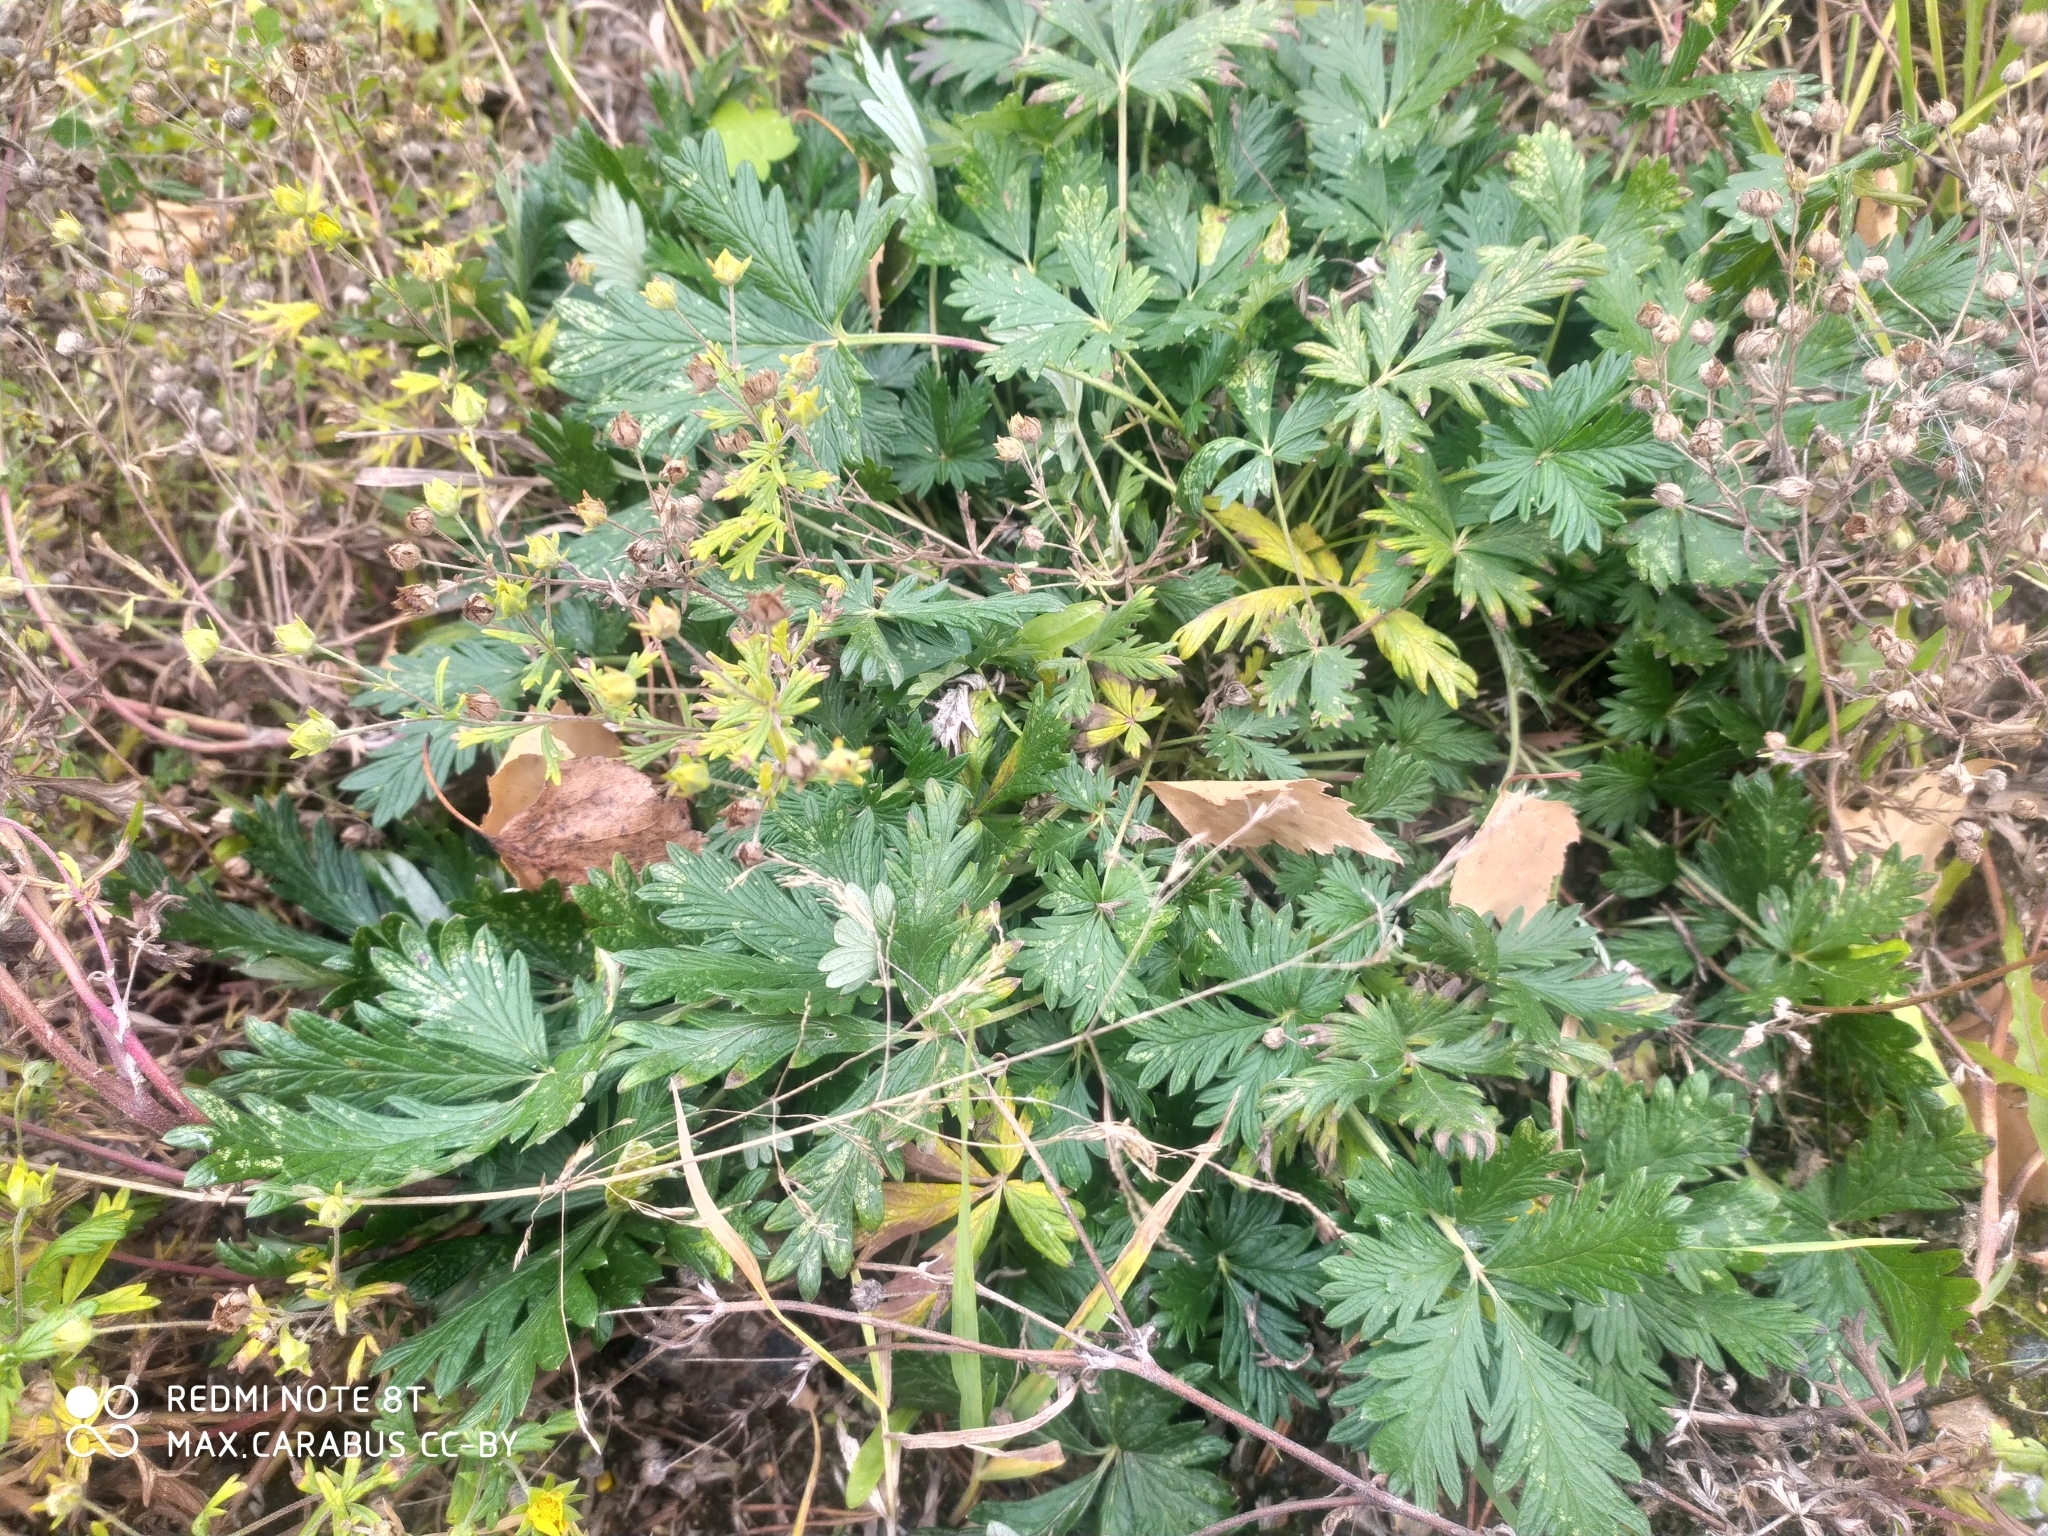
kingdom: Plantae
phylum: Tracheophyta
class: Magnoliopsida
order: Rosales
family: Rosaceae
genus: Potentilla
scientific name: Potentilla angarensis
